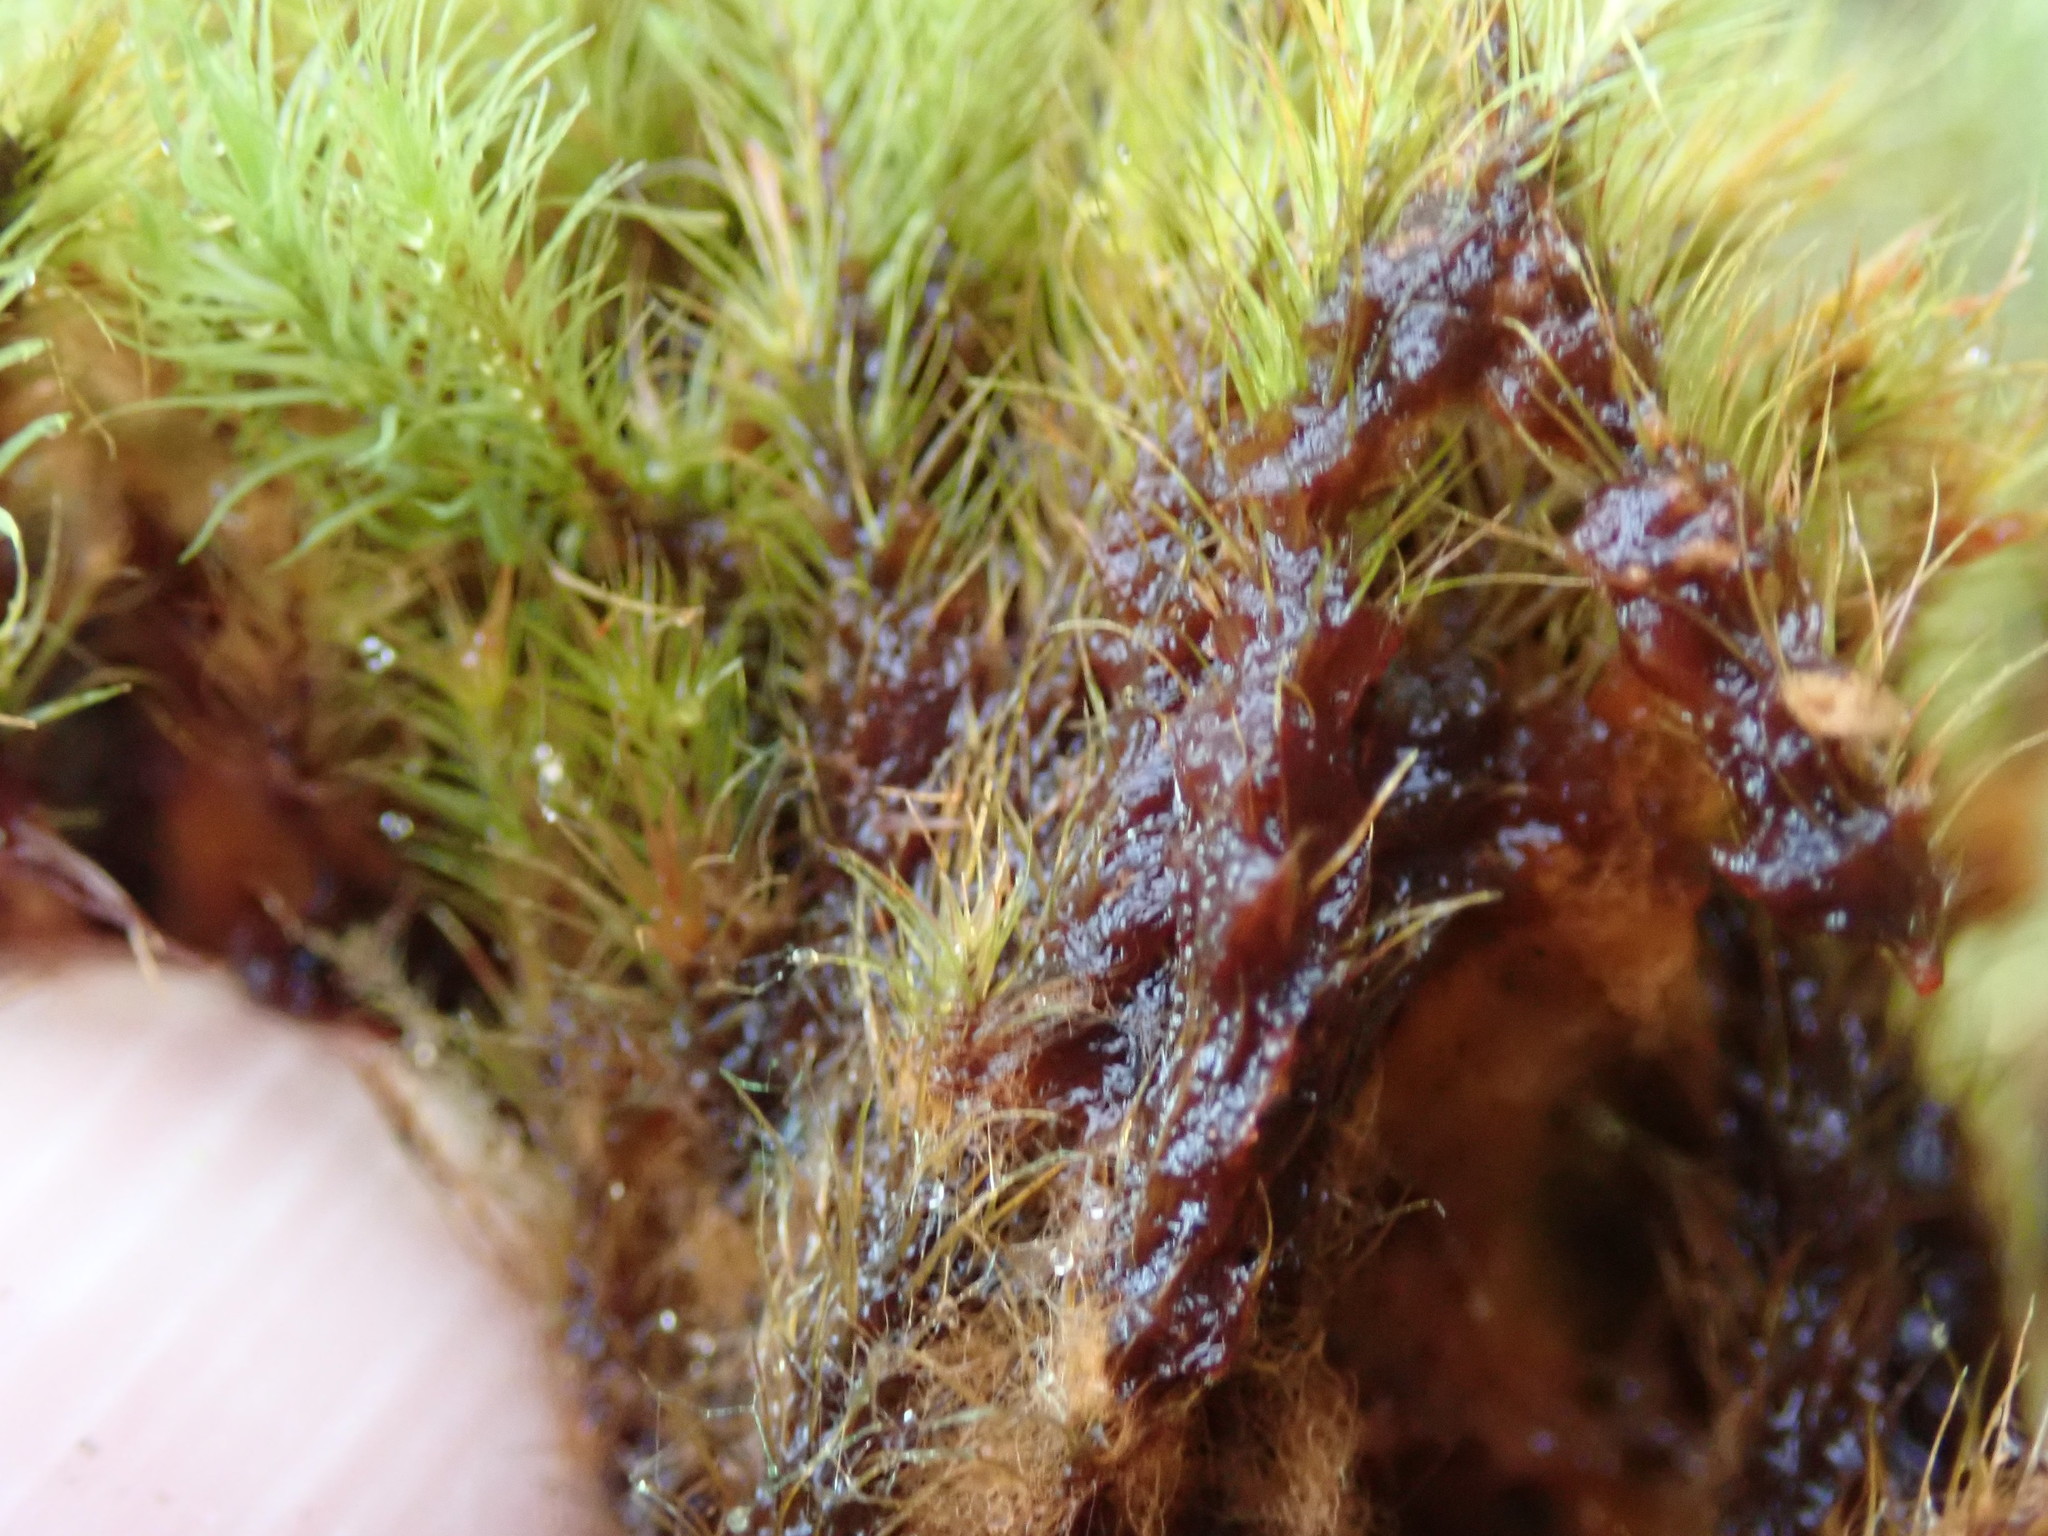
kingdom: Plantae
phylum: Bryophyta
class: Bryopsida
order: Bartramiales
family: Bartramiaceae
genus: Anacolia
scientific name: Anacolia menziesii
